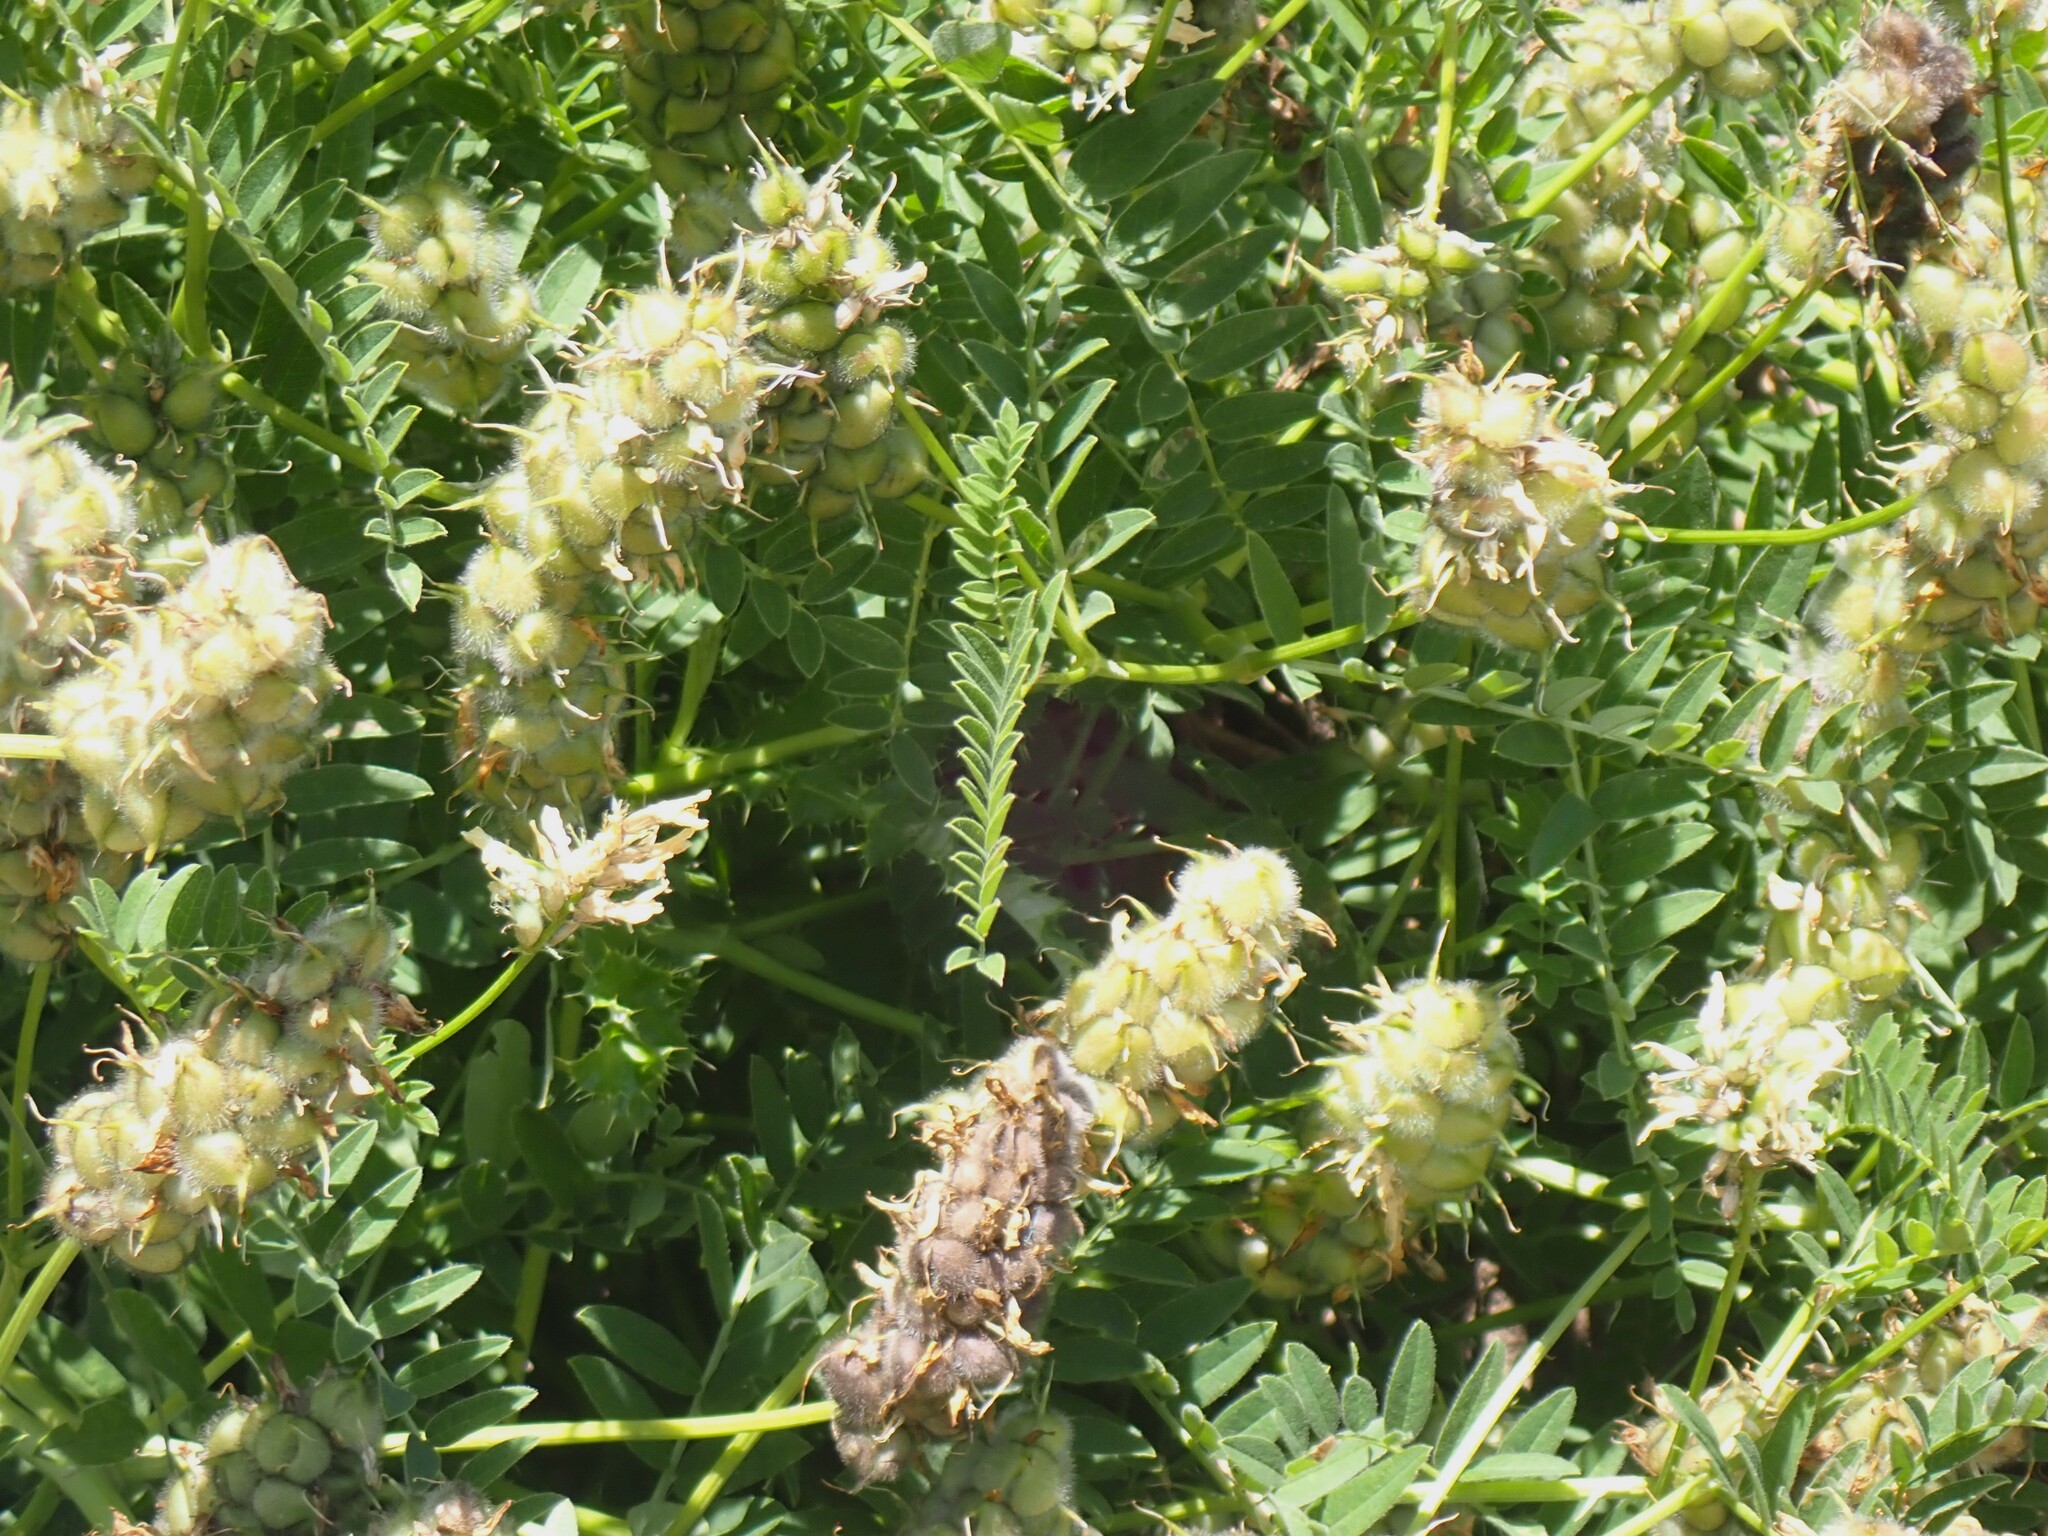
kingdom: Plantae
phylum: Tracheophyta
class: Magnoliopsida
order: Fabales
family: Fabaceae
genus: Astragalus
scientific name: Astragalus cicer
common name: Chick-pea milk-vetch
